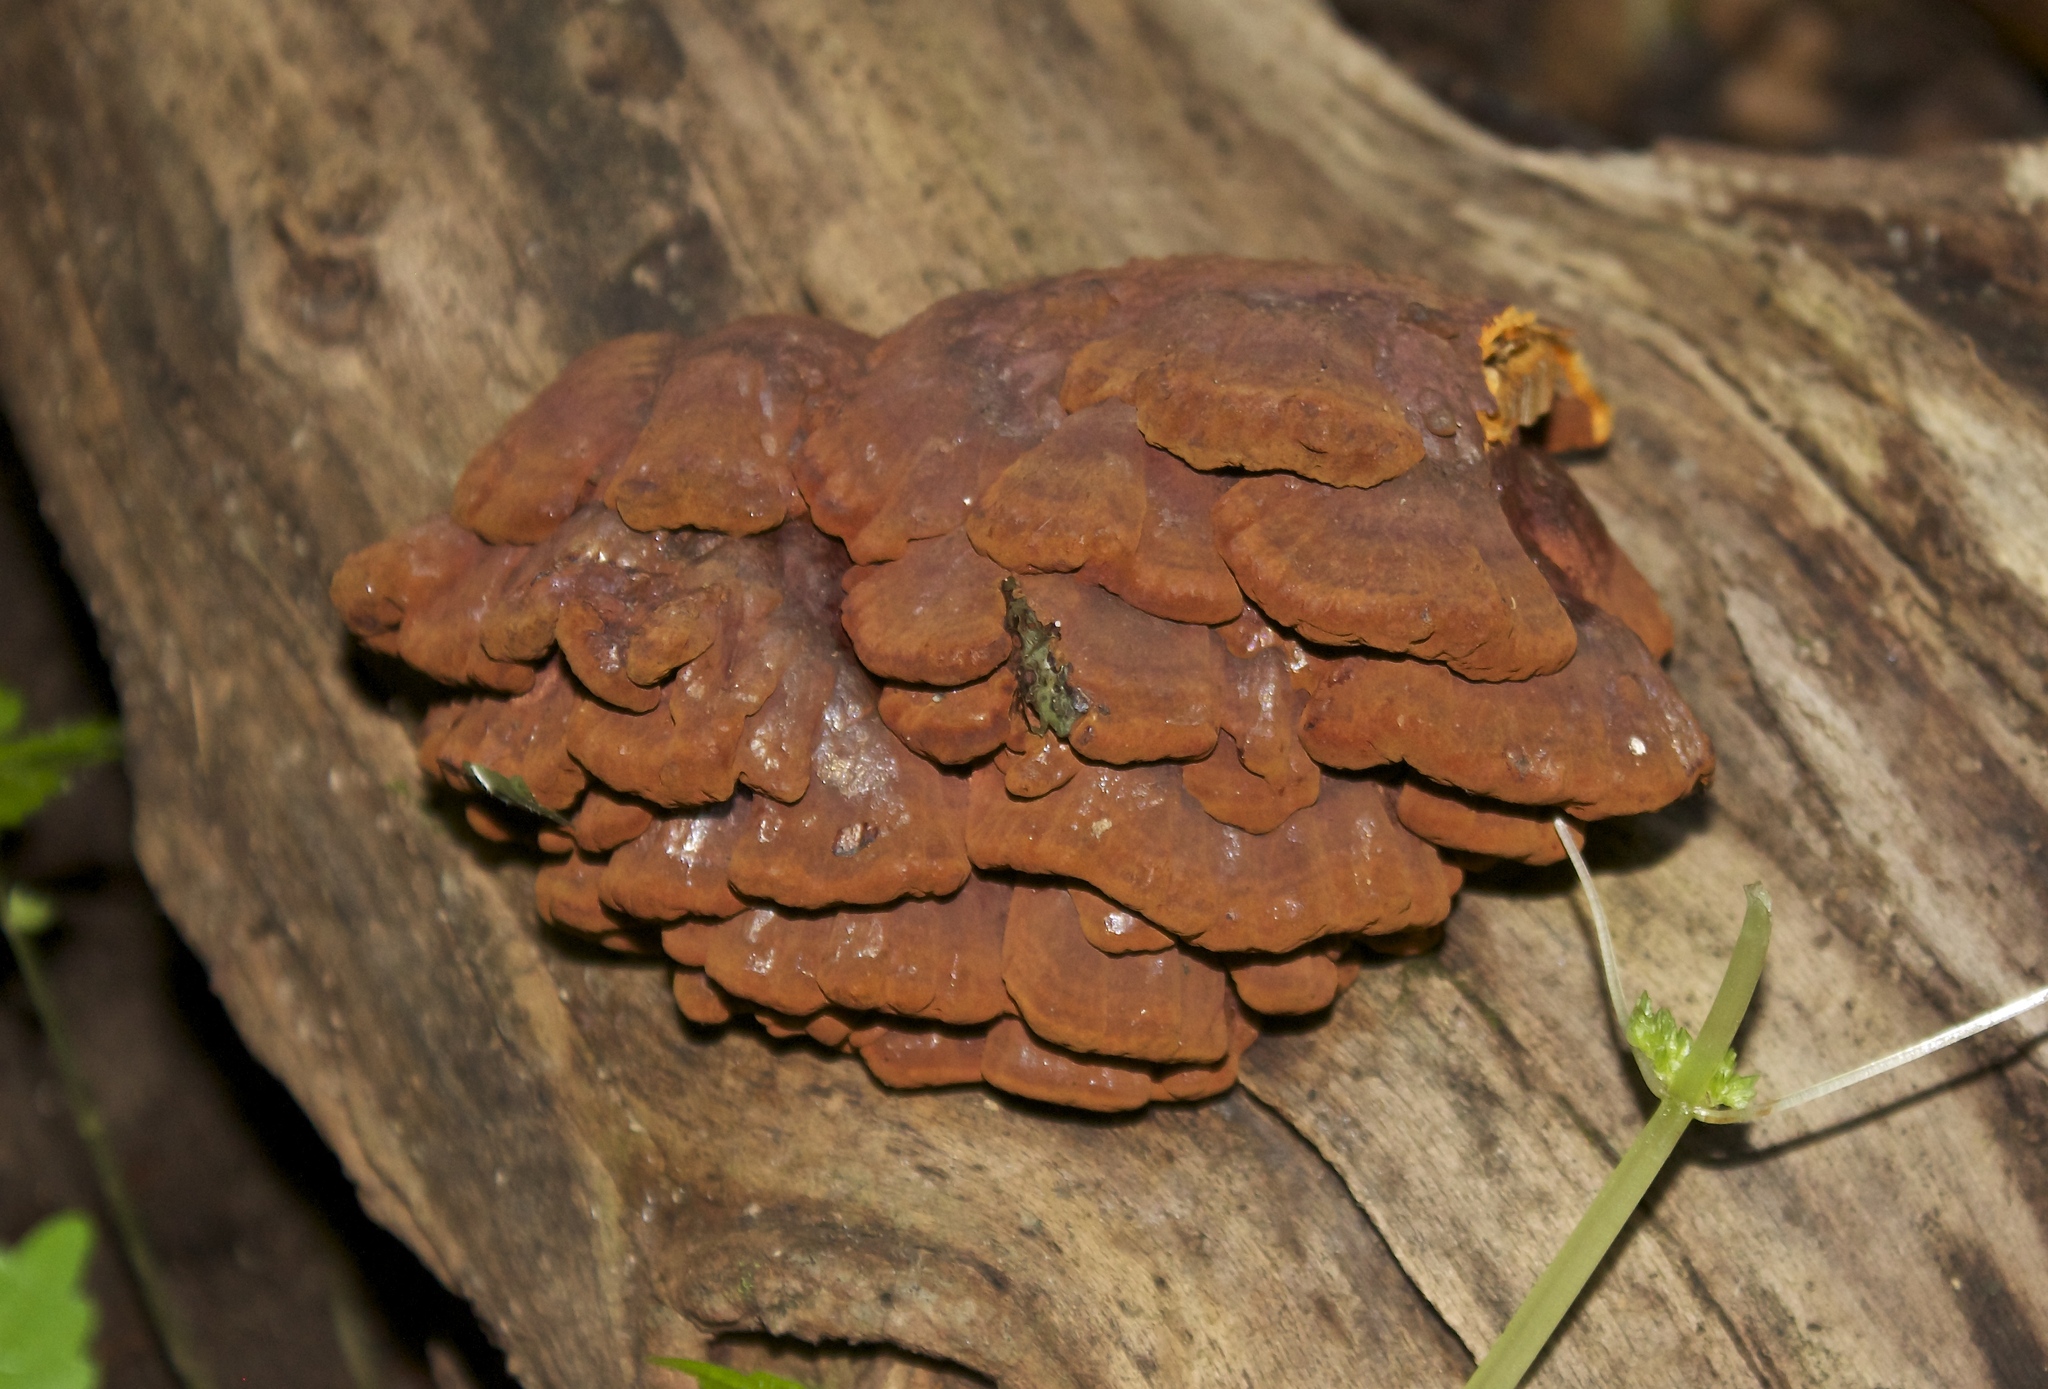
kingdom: Fungi
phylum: Basidiomycota
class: Agaricomycetes
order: Polyporales
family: Polyporaceae
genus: Globifomes
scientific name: Globifomes graveolens
